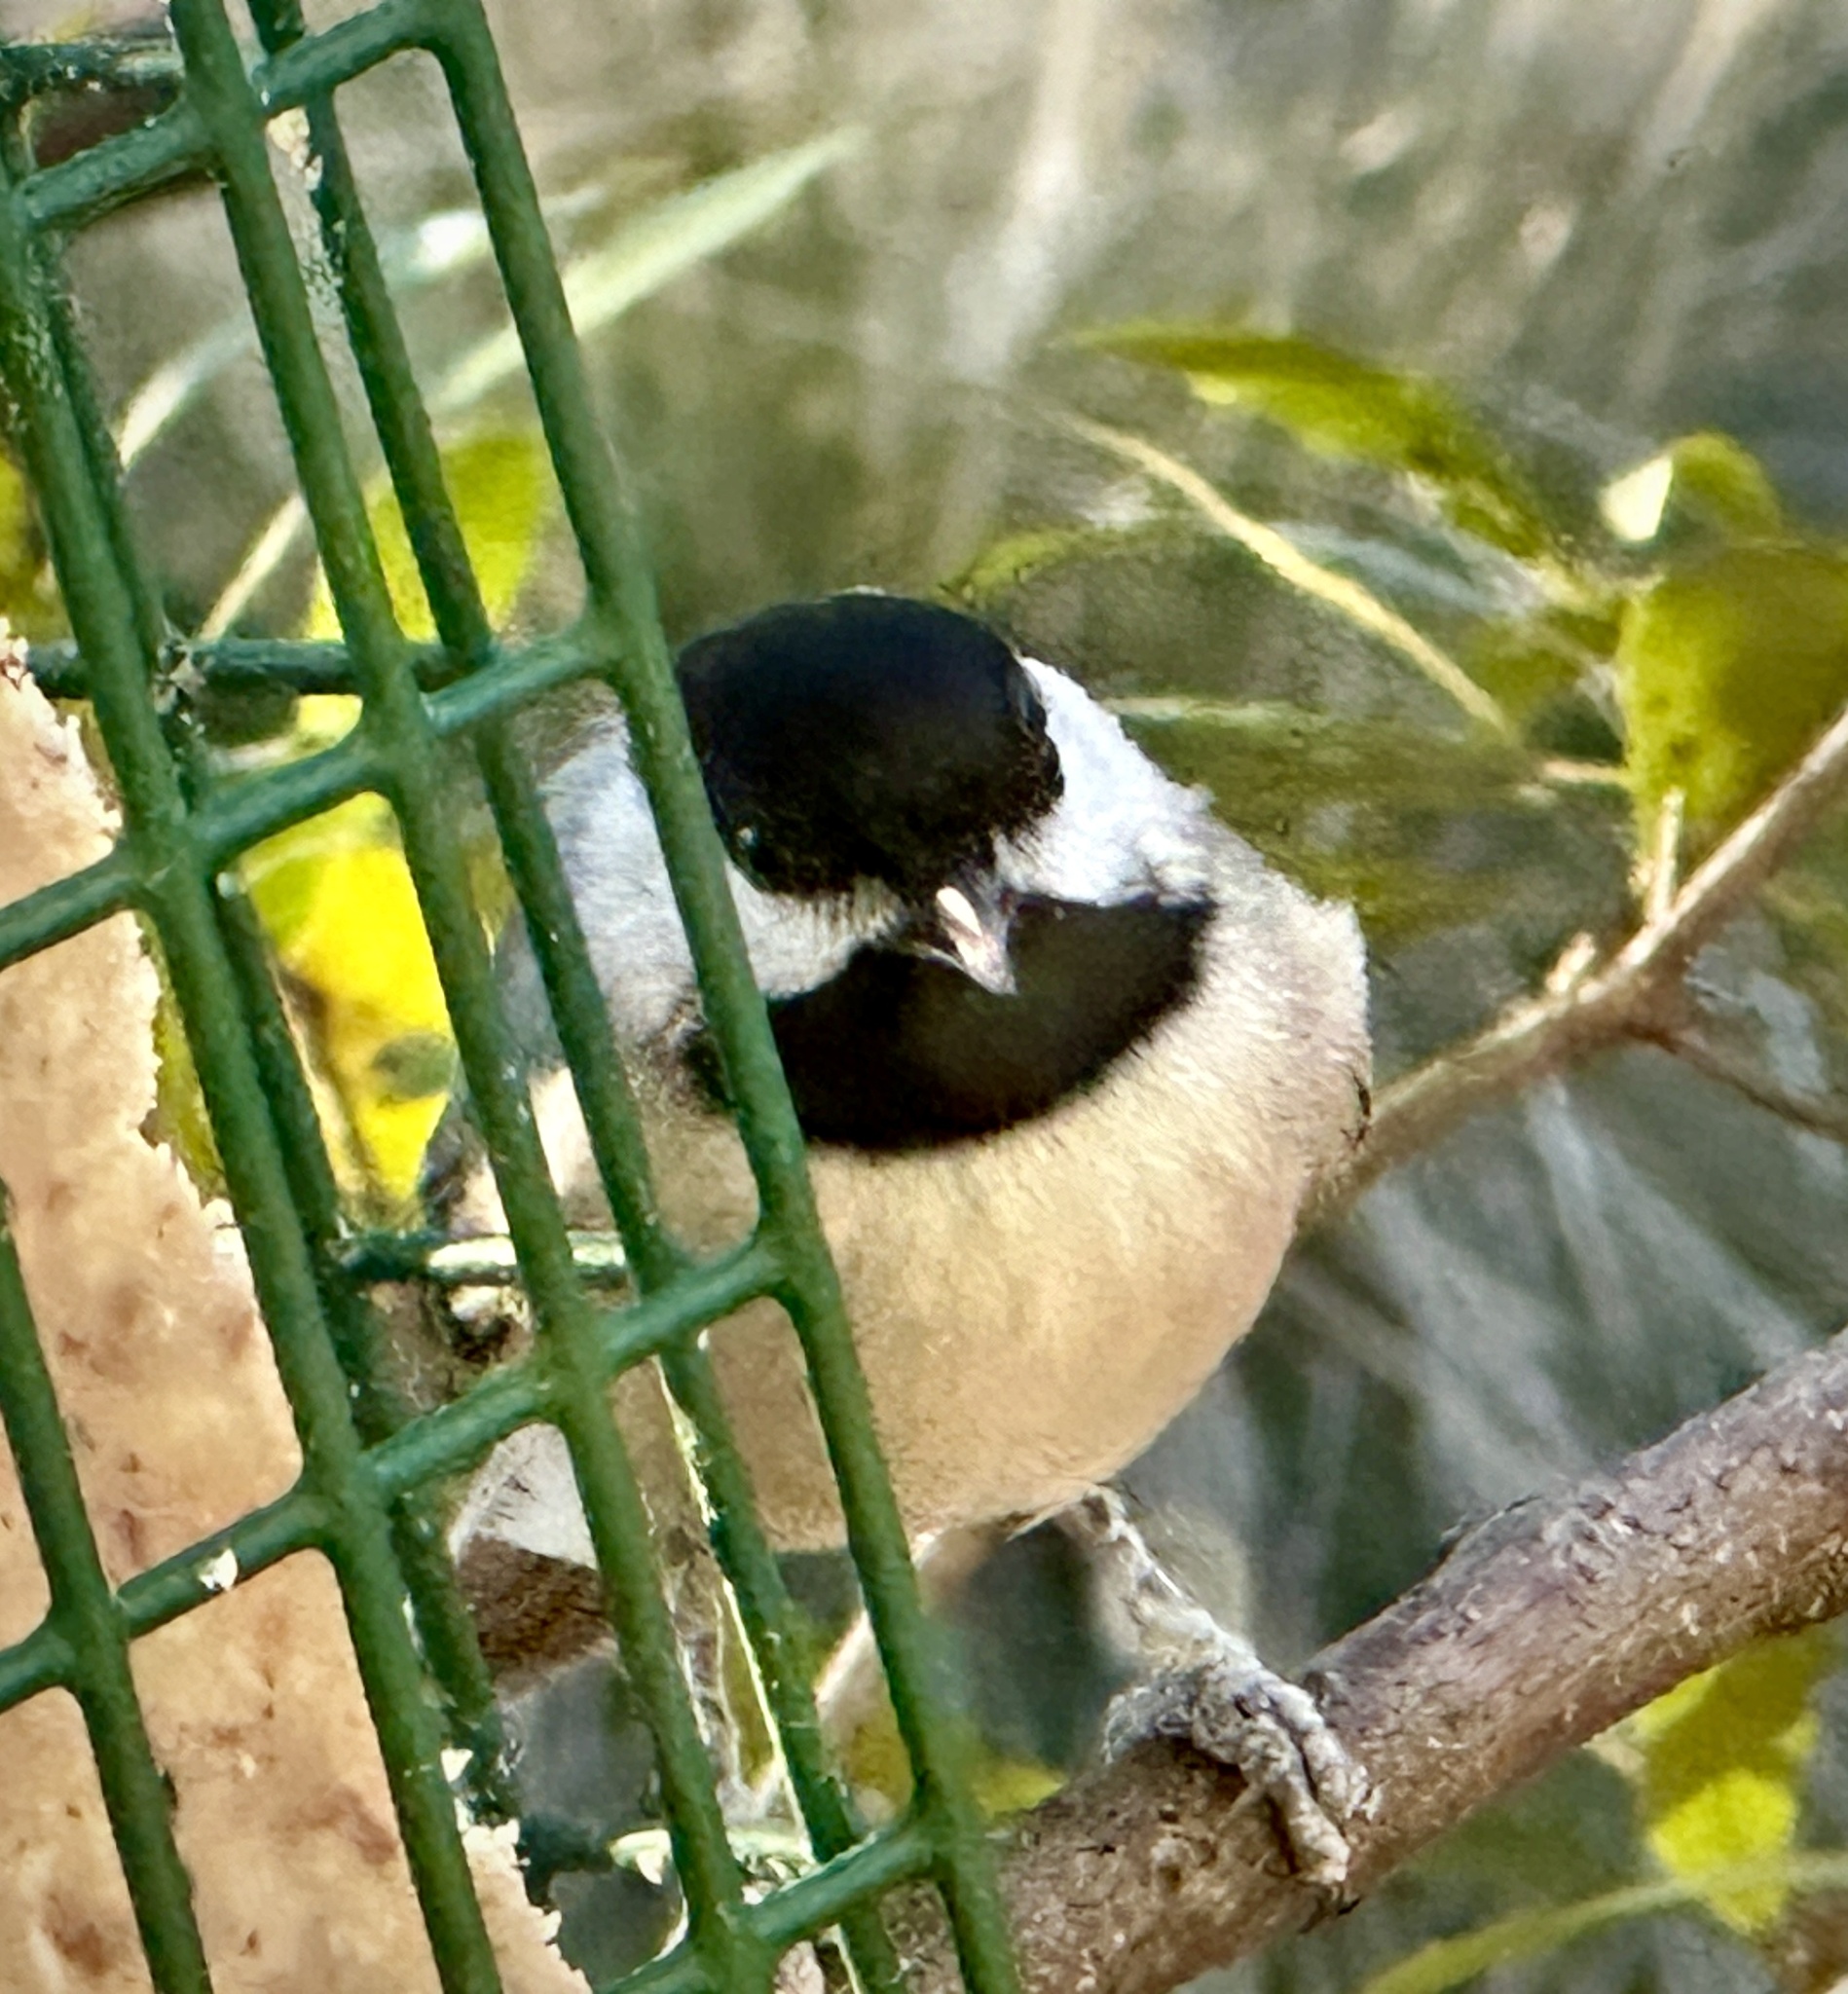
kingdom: Animalia
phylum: Chordata
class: Aves
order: Passeriformes
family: Paridae
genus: Poecile
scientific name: Poecile carolinensis
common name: Carolina chickadee
